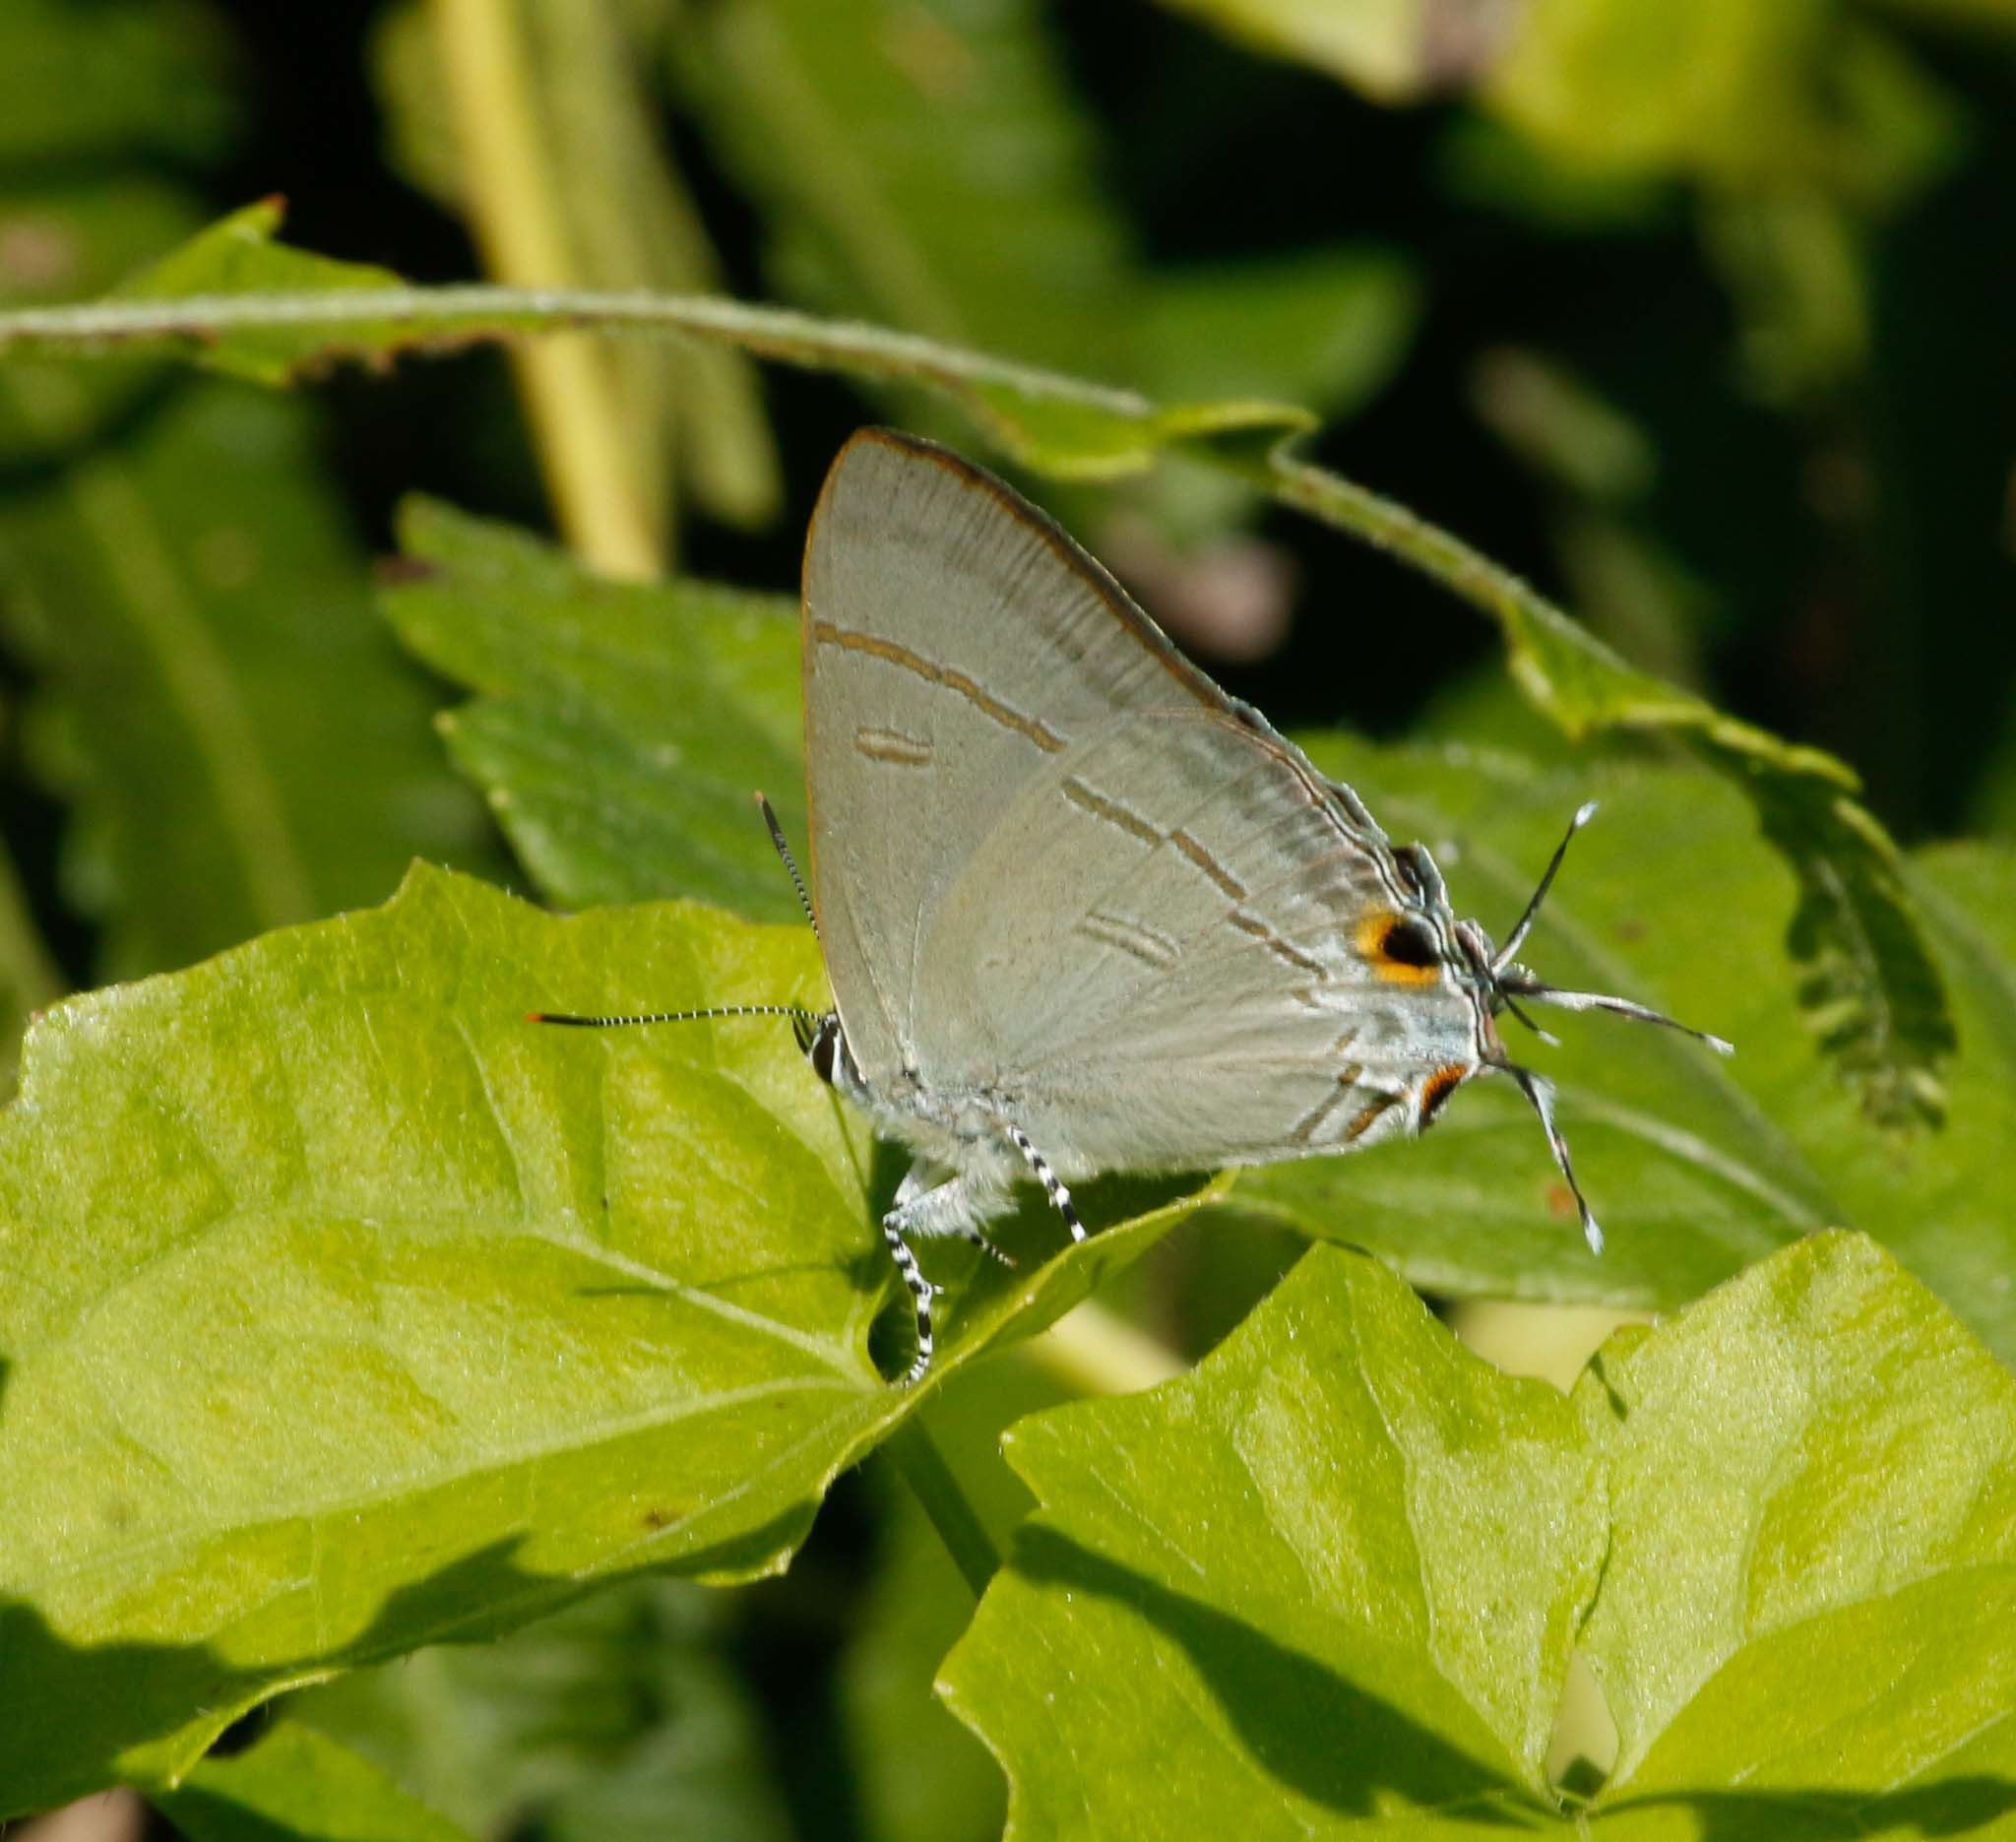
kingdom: Animalia
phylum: Arthropoda
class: Insecta
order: Lepidoptera
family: Lycaenidae
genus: Hypolycaena
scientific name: Hypolycaena erylus
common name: Common tit
